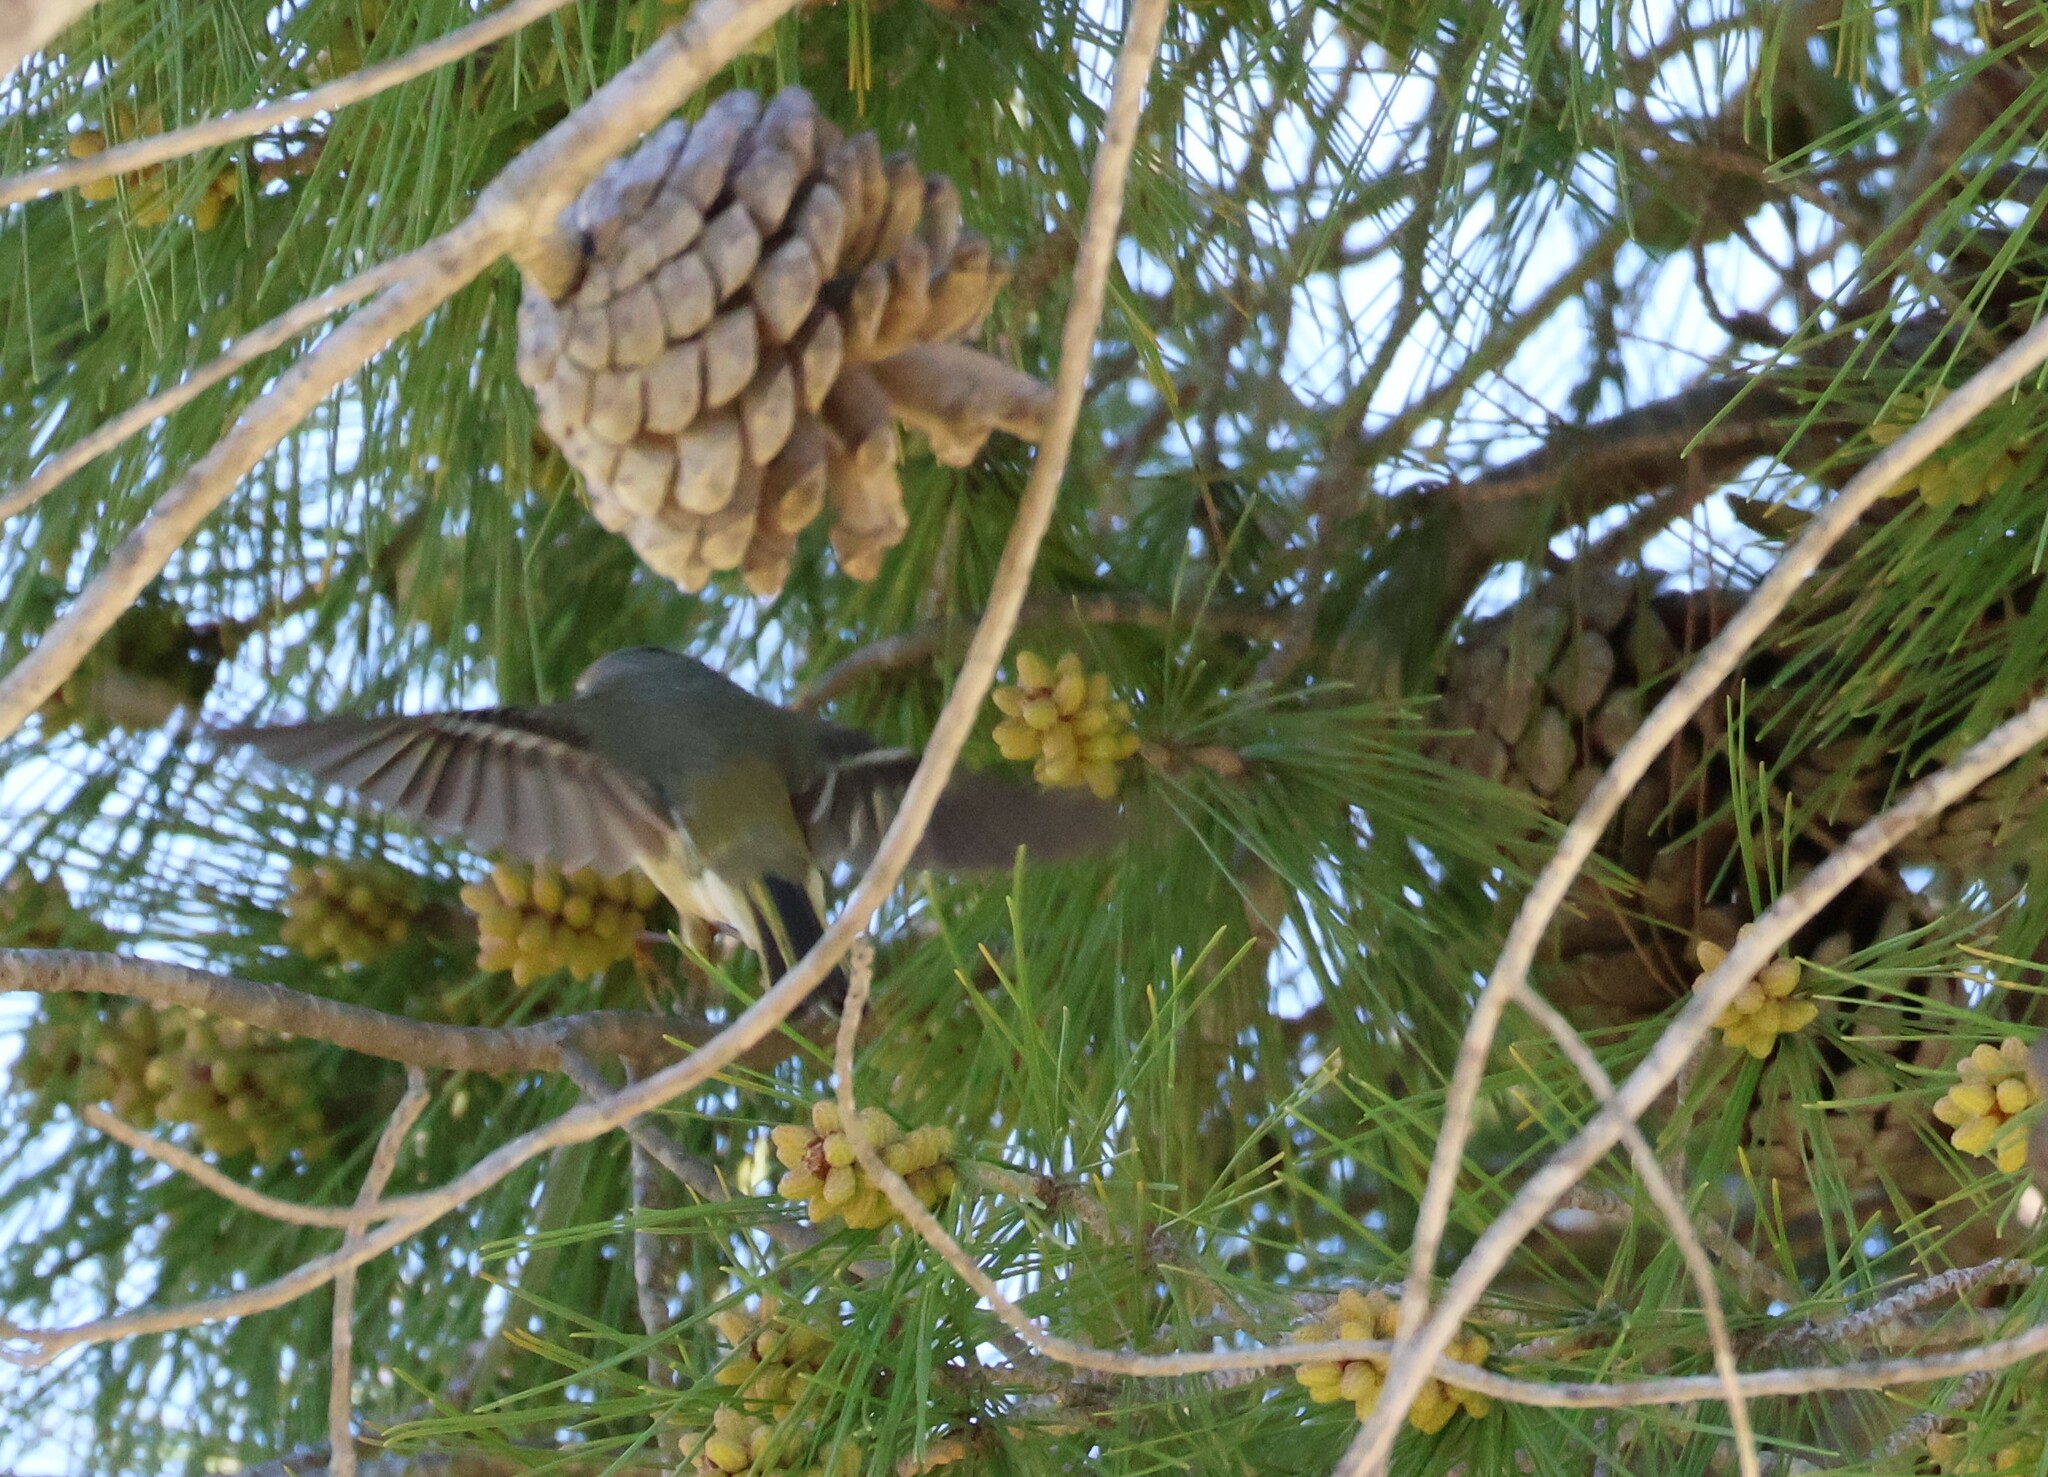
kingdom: Animalia
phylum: Chordata
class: Aves
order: Passeriformes
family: Regulidae
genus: Regulus
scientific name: Regulus calendula
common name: Ruby-crowned kinglet
